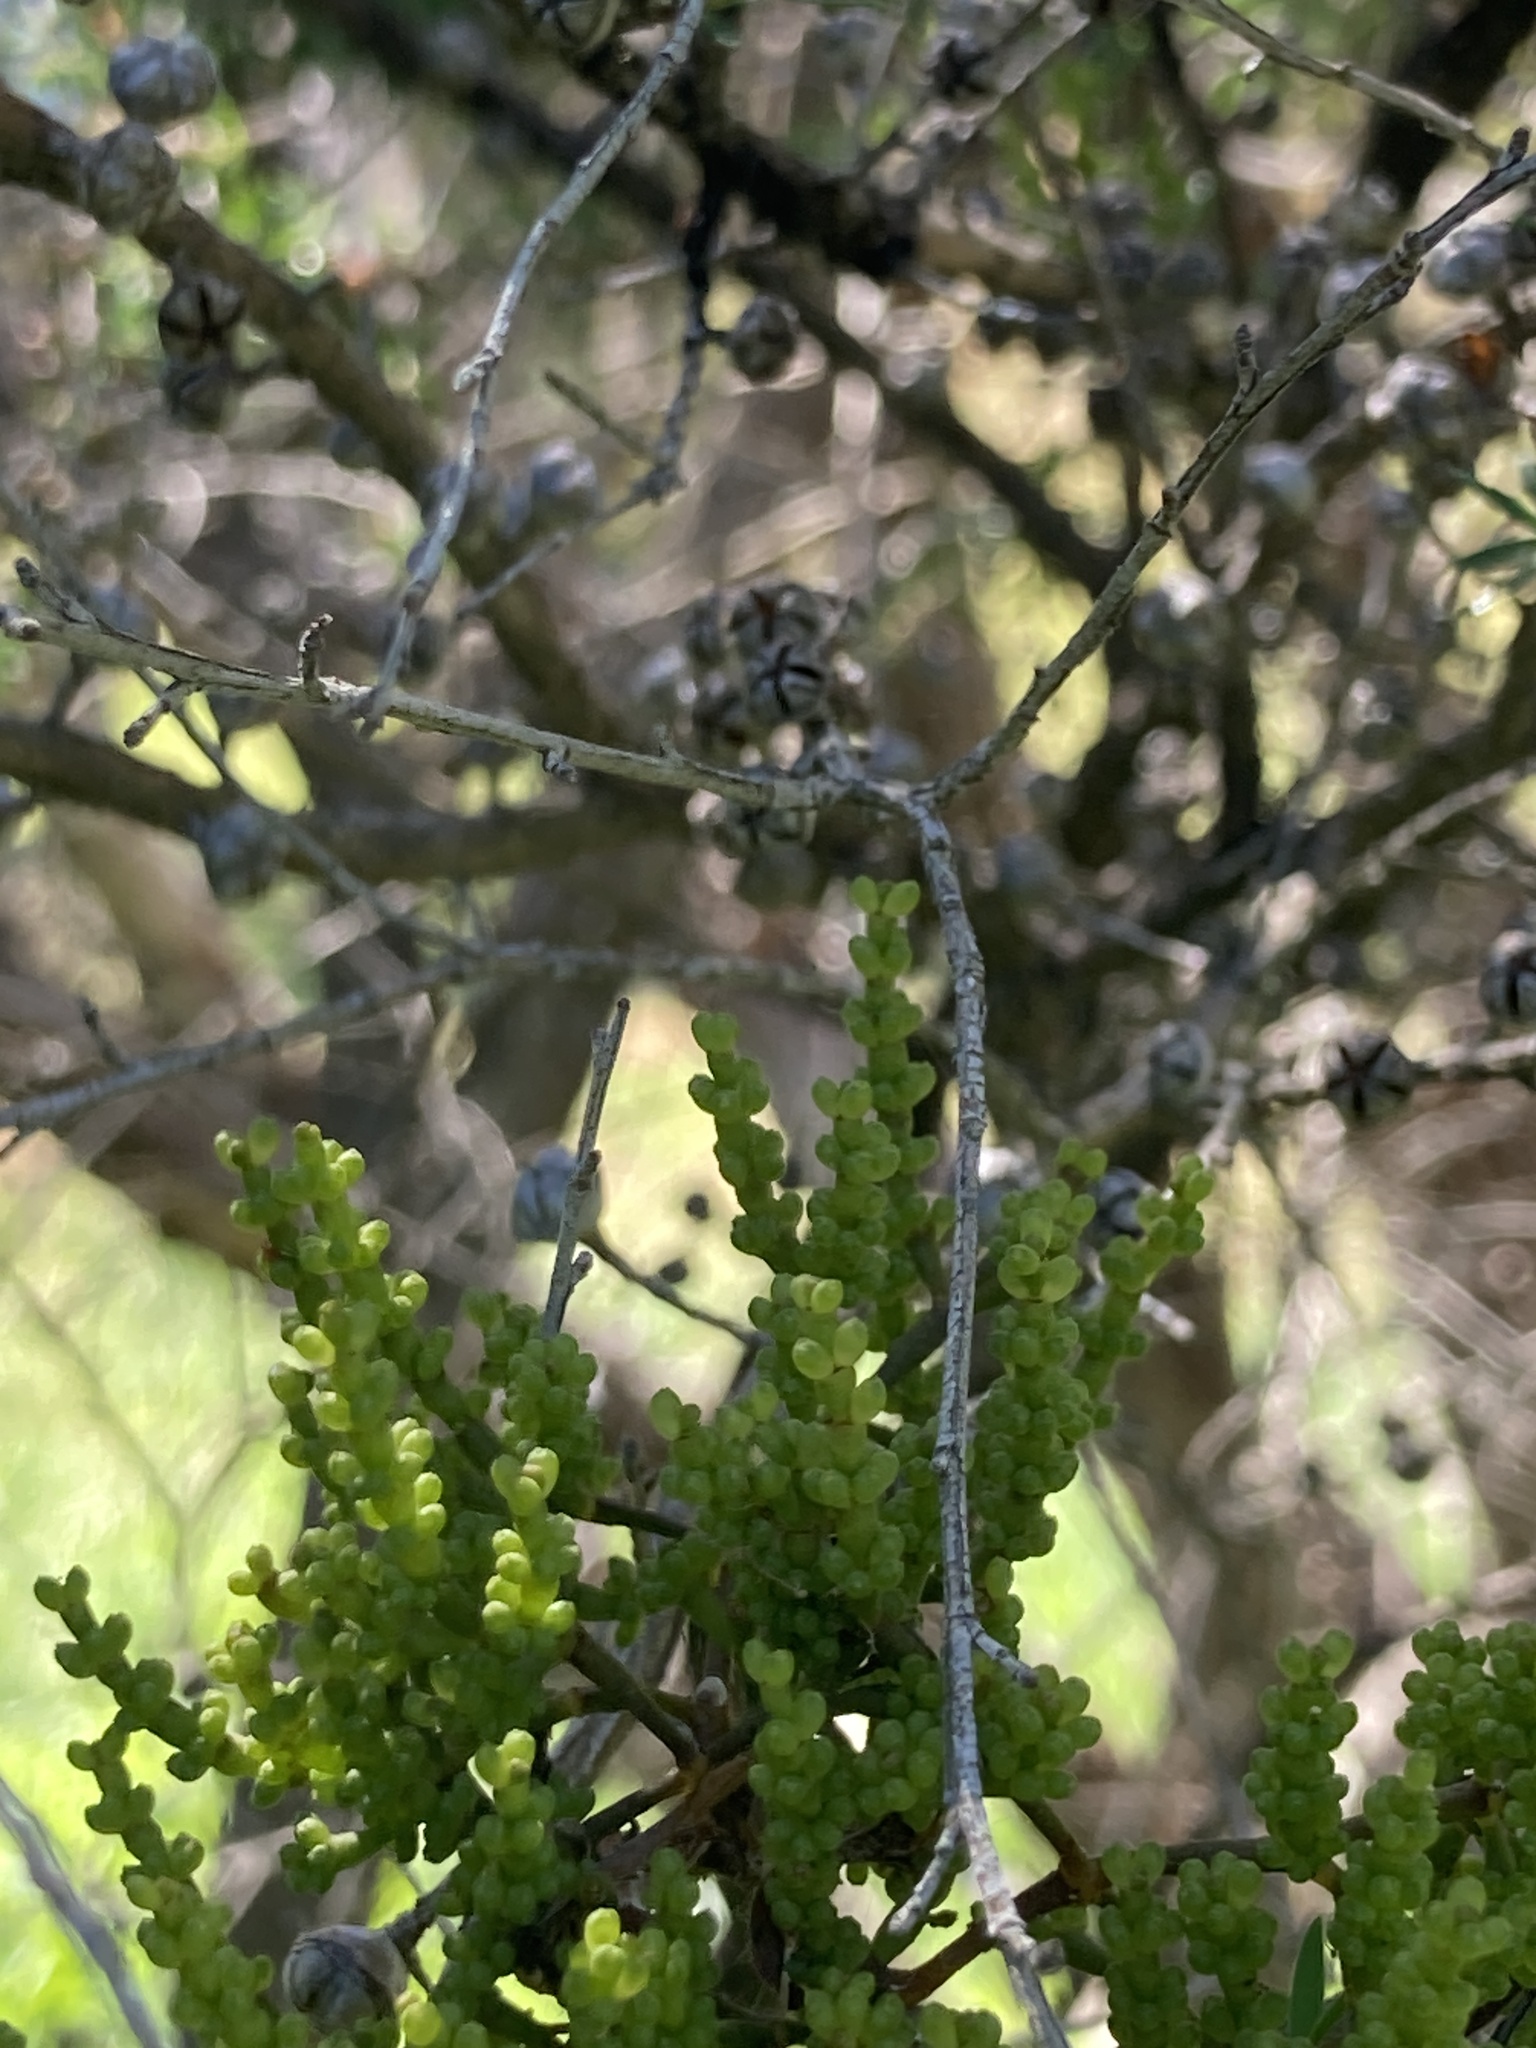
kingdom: Plantae
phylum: Tracheophyta
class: Magnoliopsida
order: Santalales
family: Viscaceae
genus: Korthalsella
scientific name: Korthalsella salicornioides
